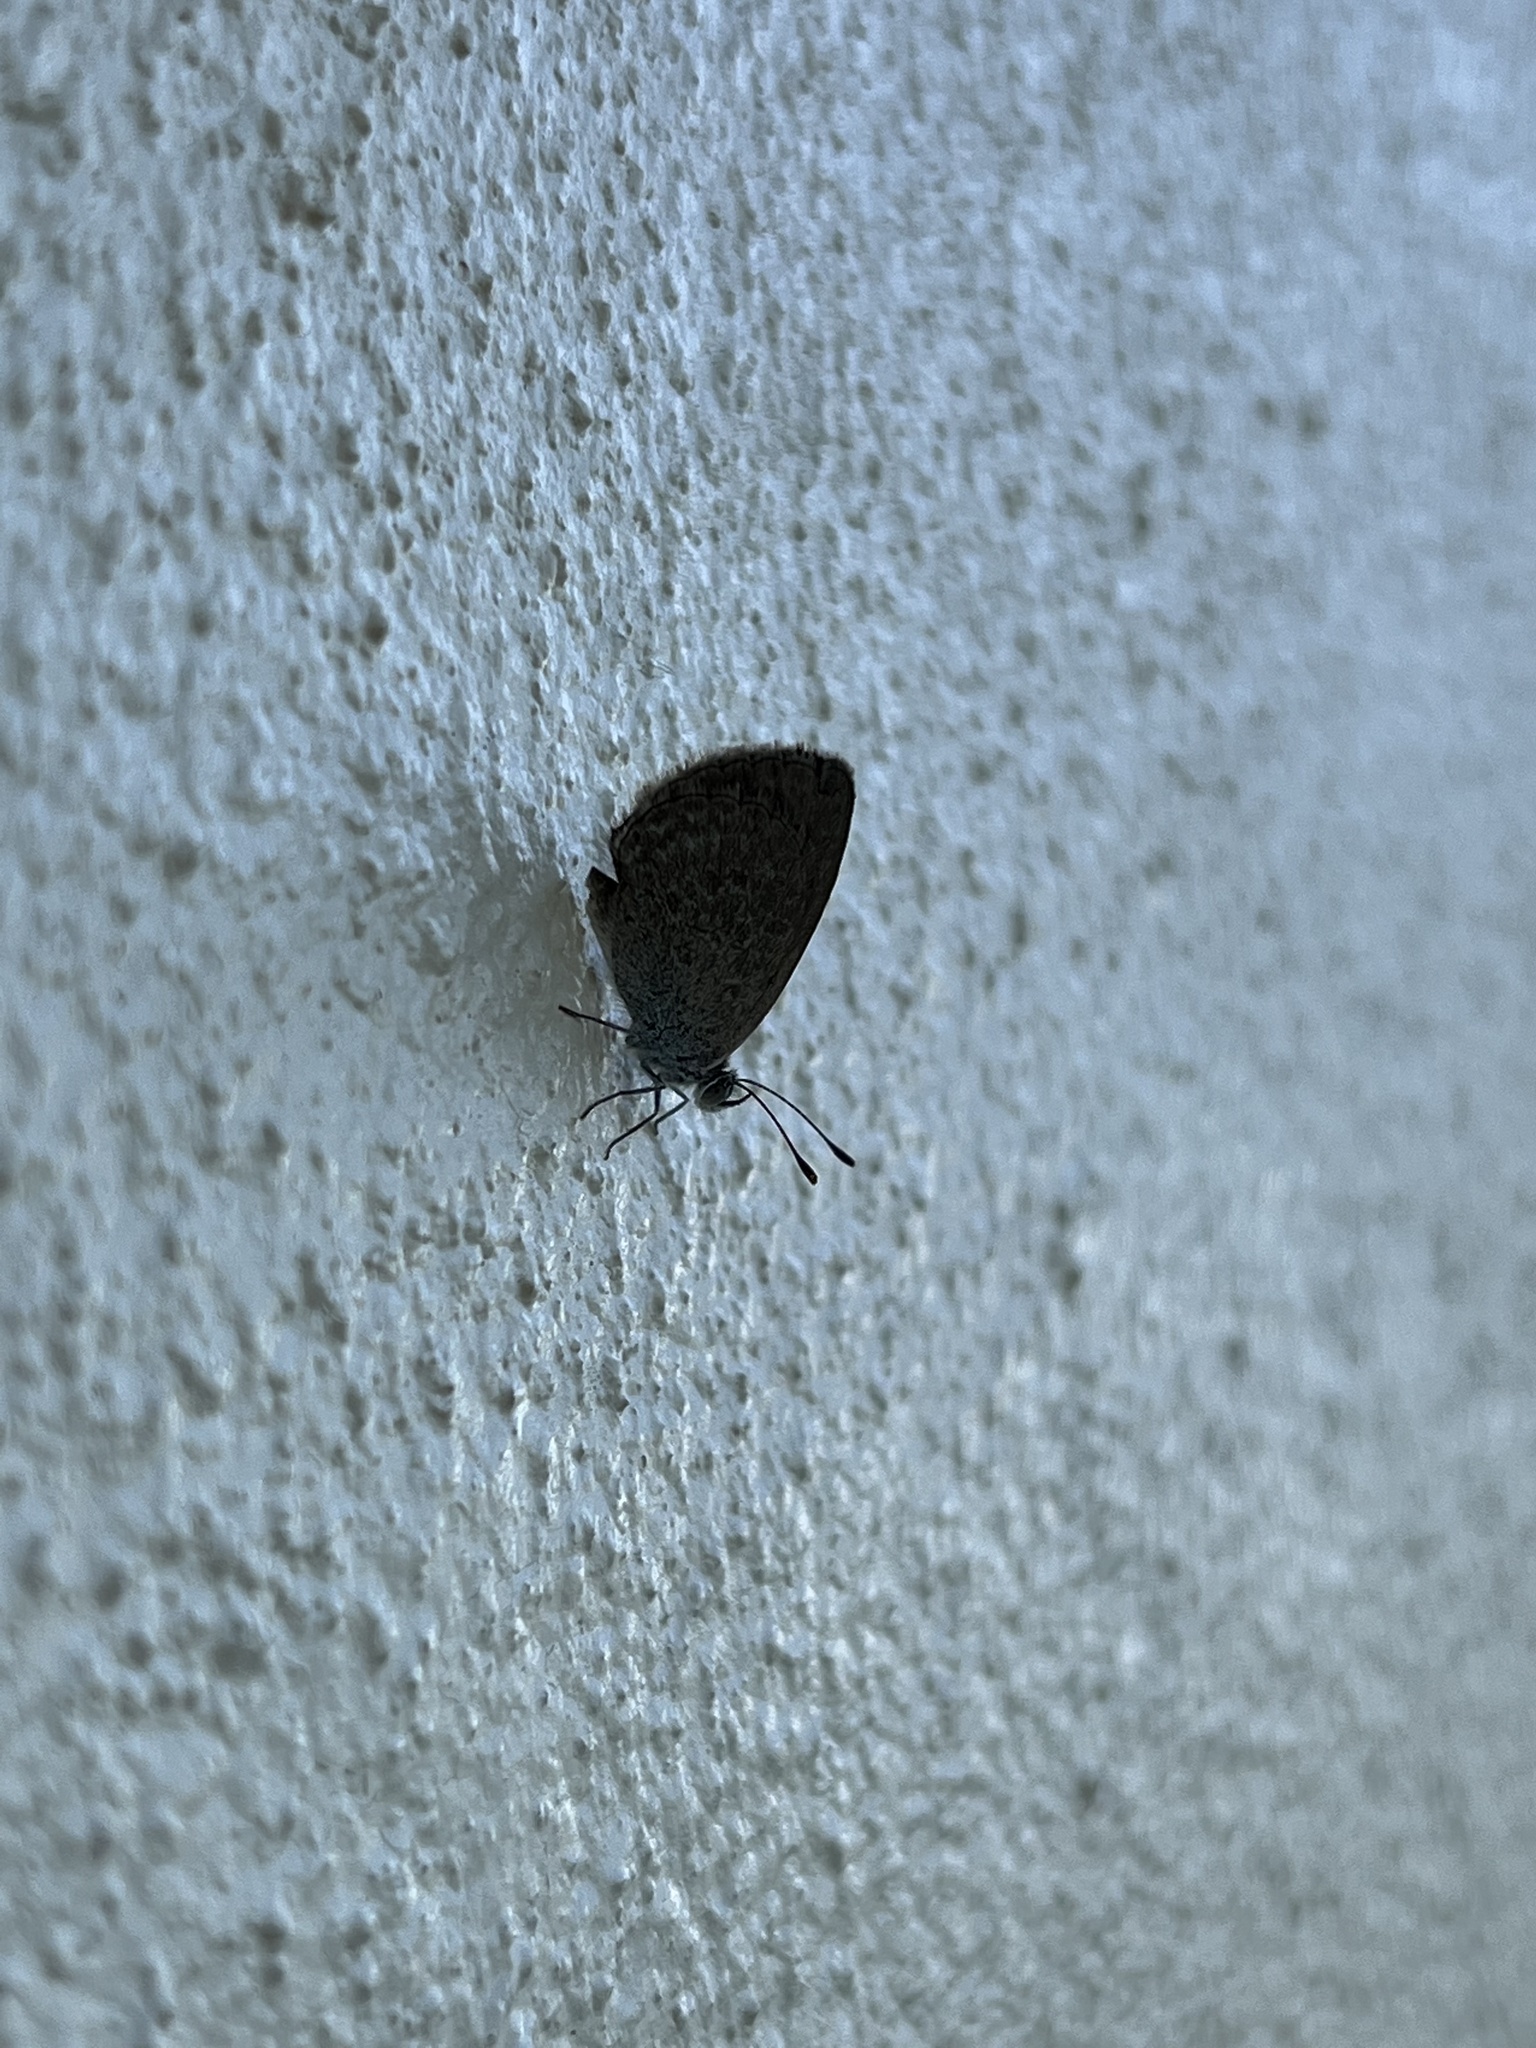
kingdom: Animalia
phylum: Arthropoda
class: Insecta
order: Lepidoptera
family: Lycaenidae
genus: Zizina
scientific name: Zizina labradus
